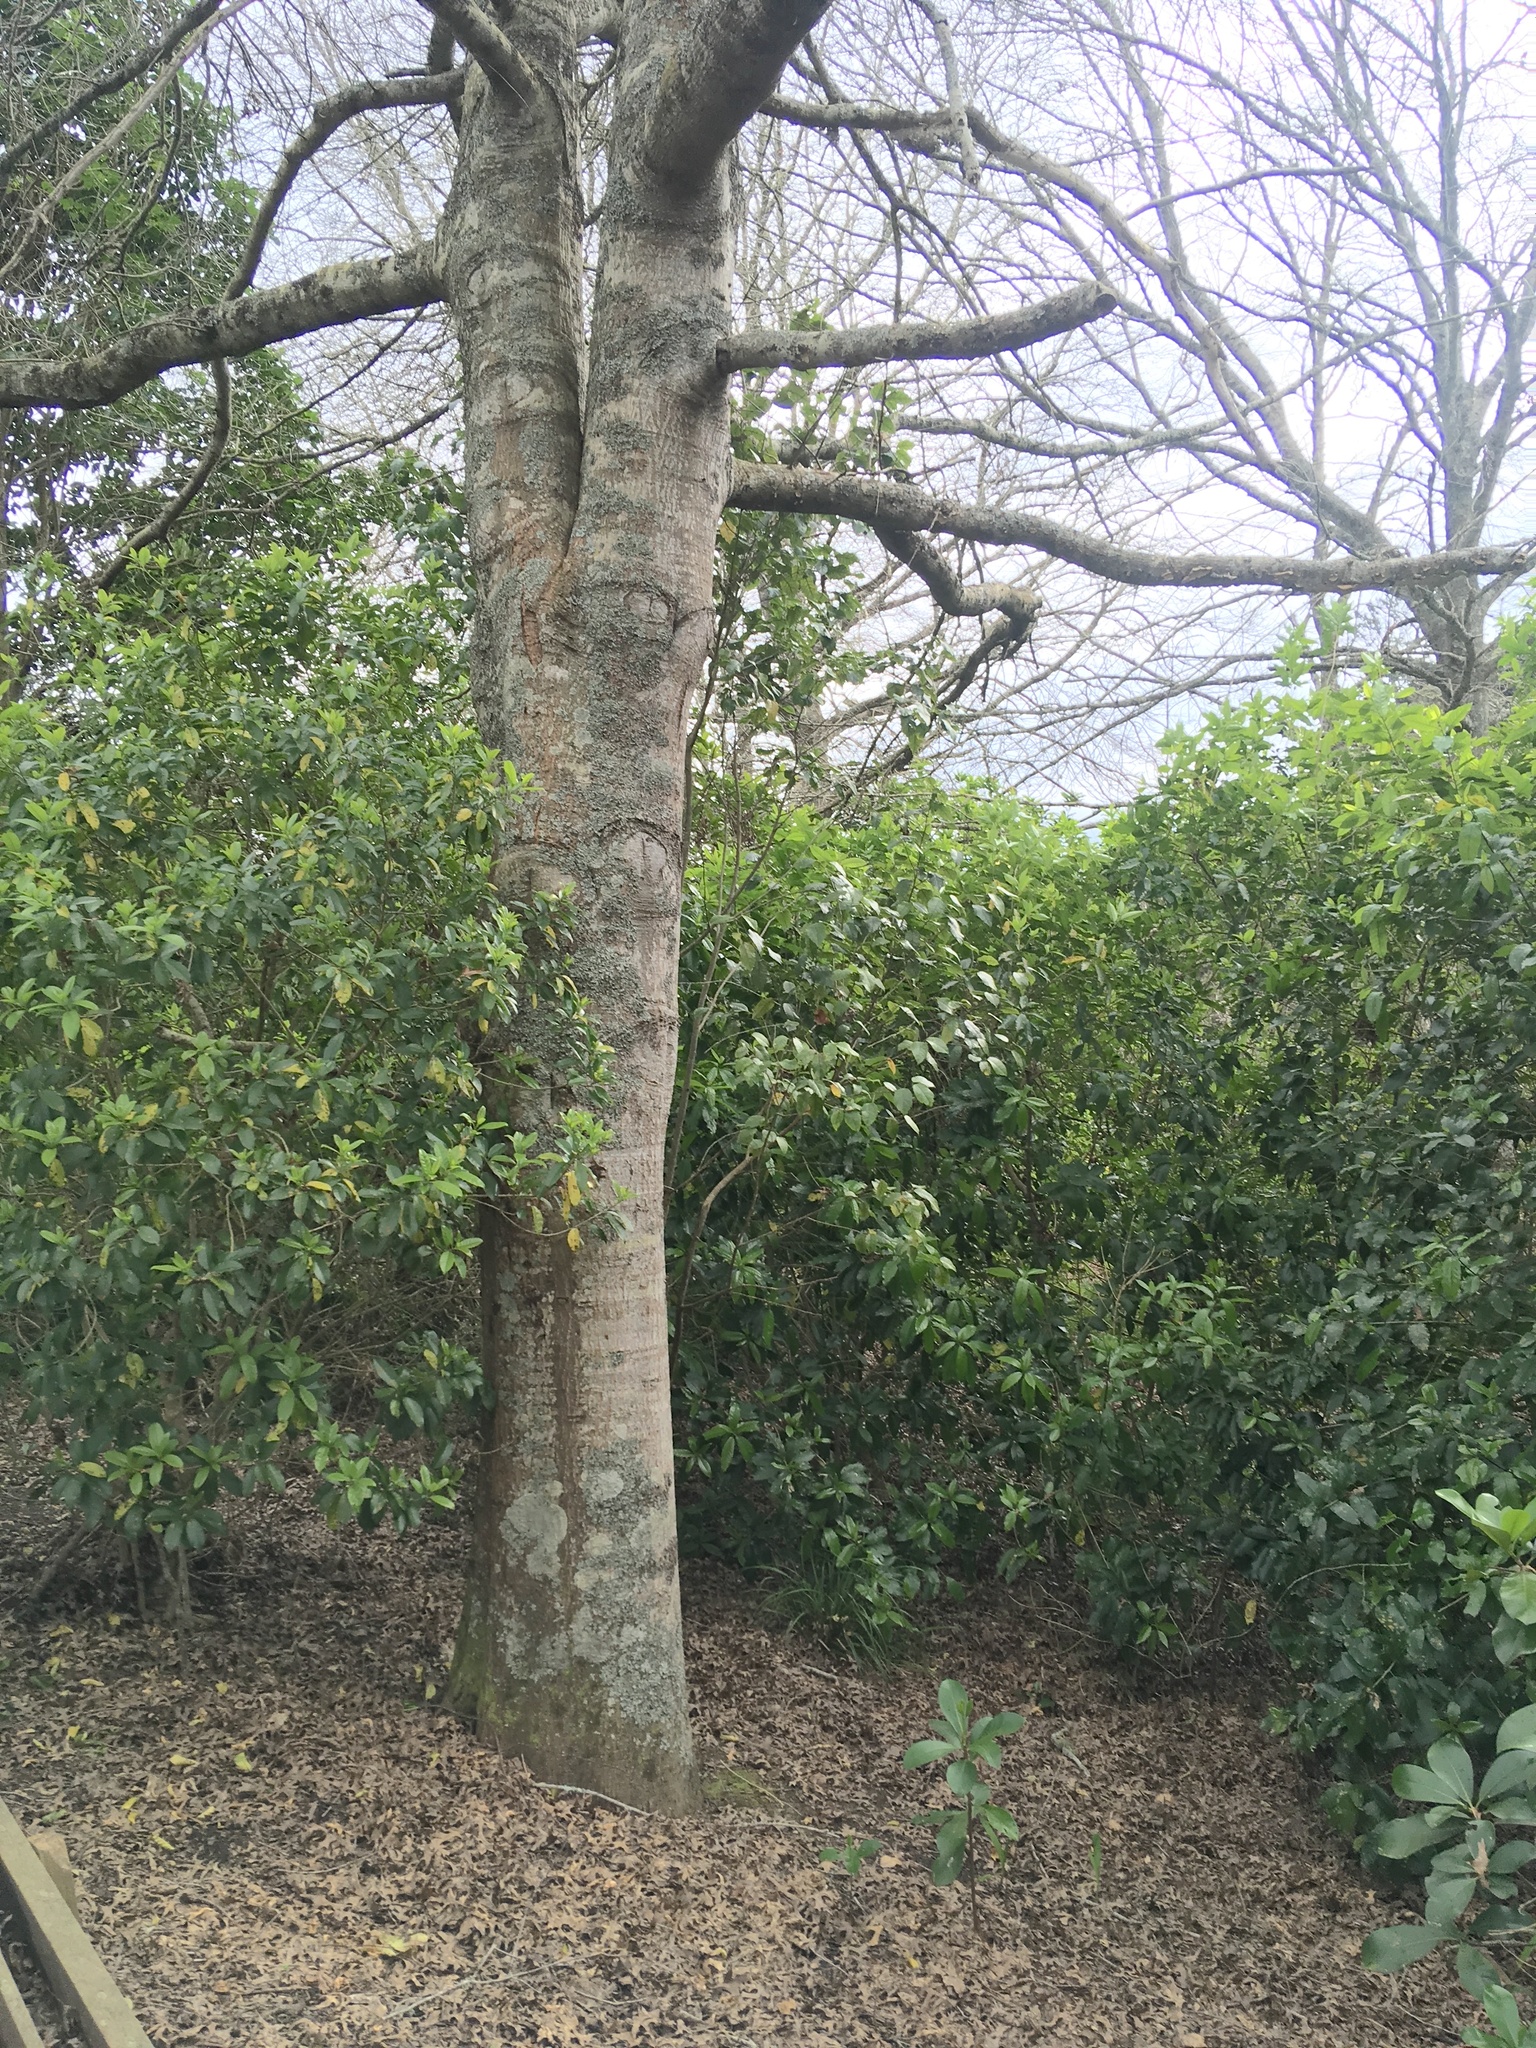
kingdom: Plantae
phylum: Tracheophyta
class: Magnoliopsida
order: Malpighiales
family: Violaceae
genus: Melicytus
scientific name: Melicytus ramiflorus
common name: Mahoe
